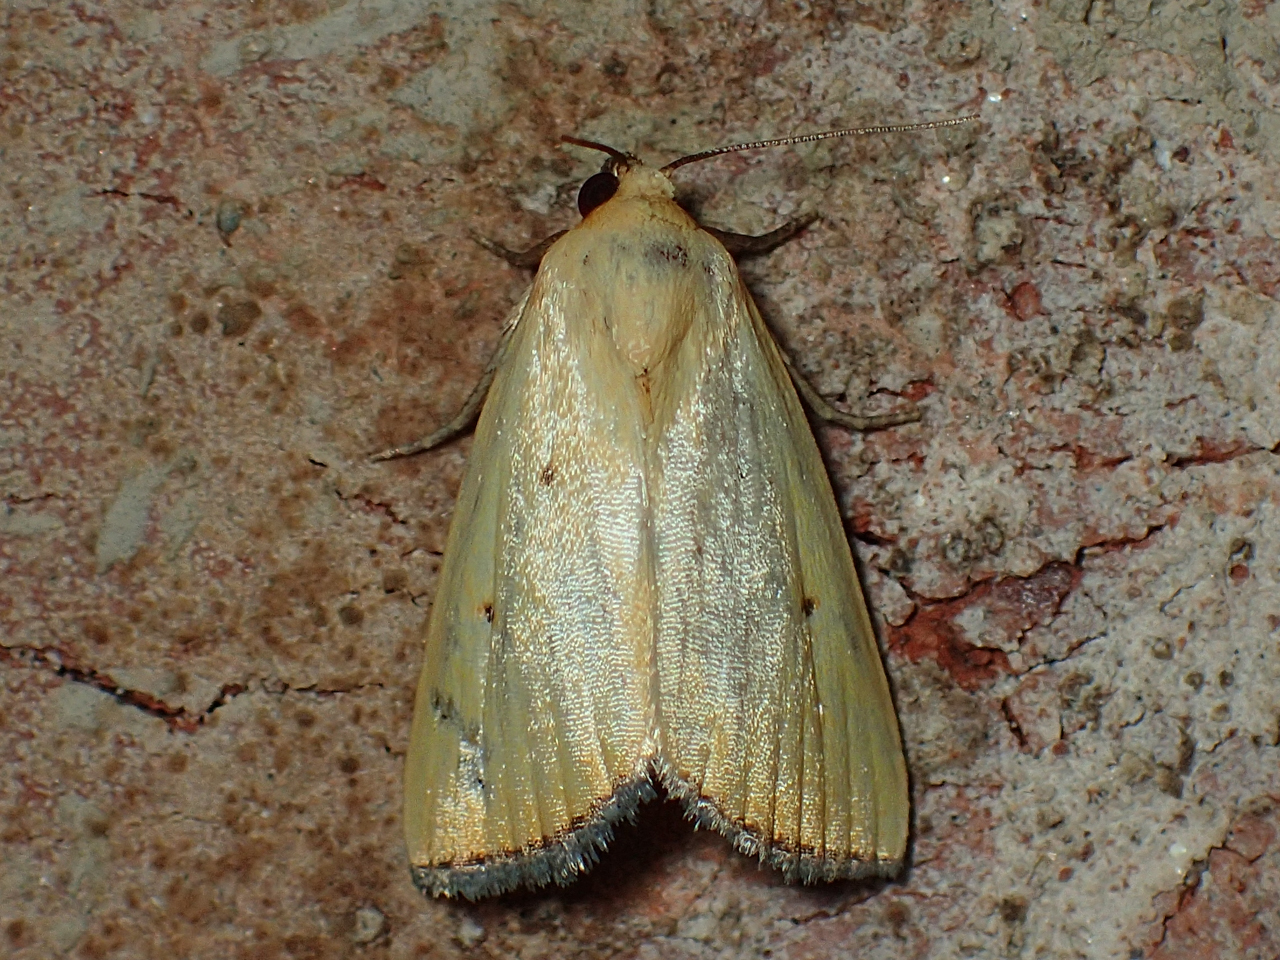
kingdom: Animalia
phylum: Arthropoda
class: Insecta
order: Lepidoptera
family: Noctuidae
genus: Marimatha
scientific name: Marimatha nigrofimbria
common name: Black-bordered lemon moth
